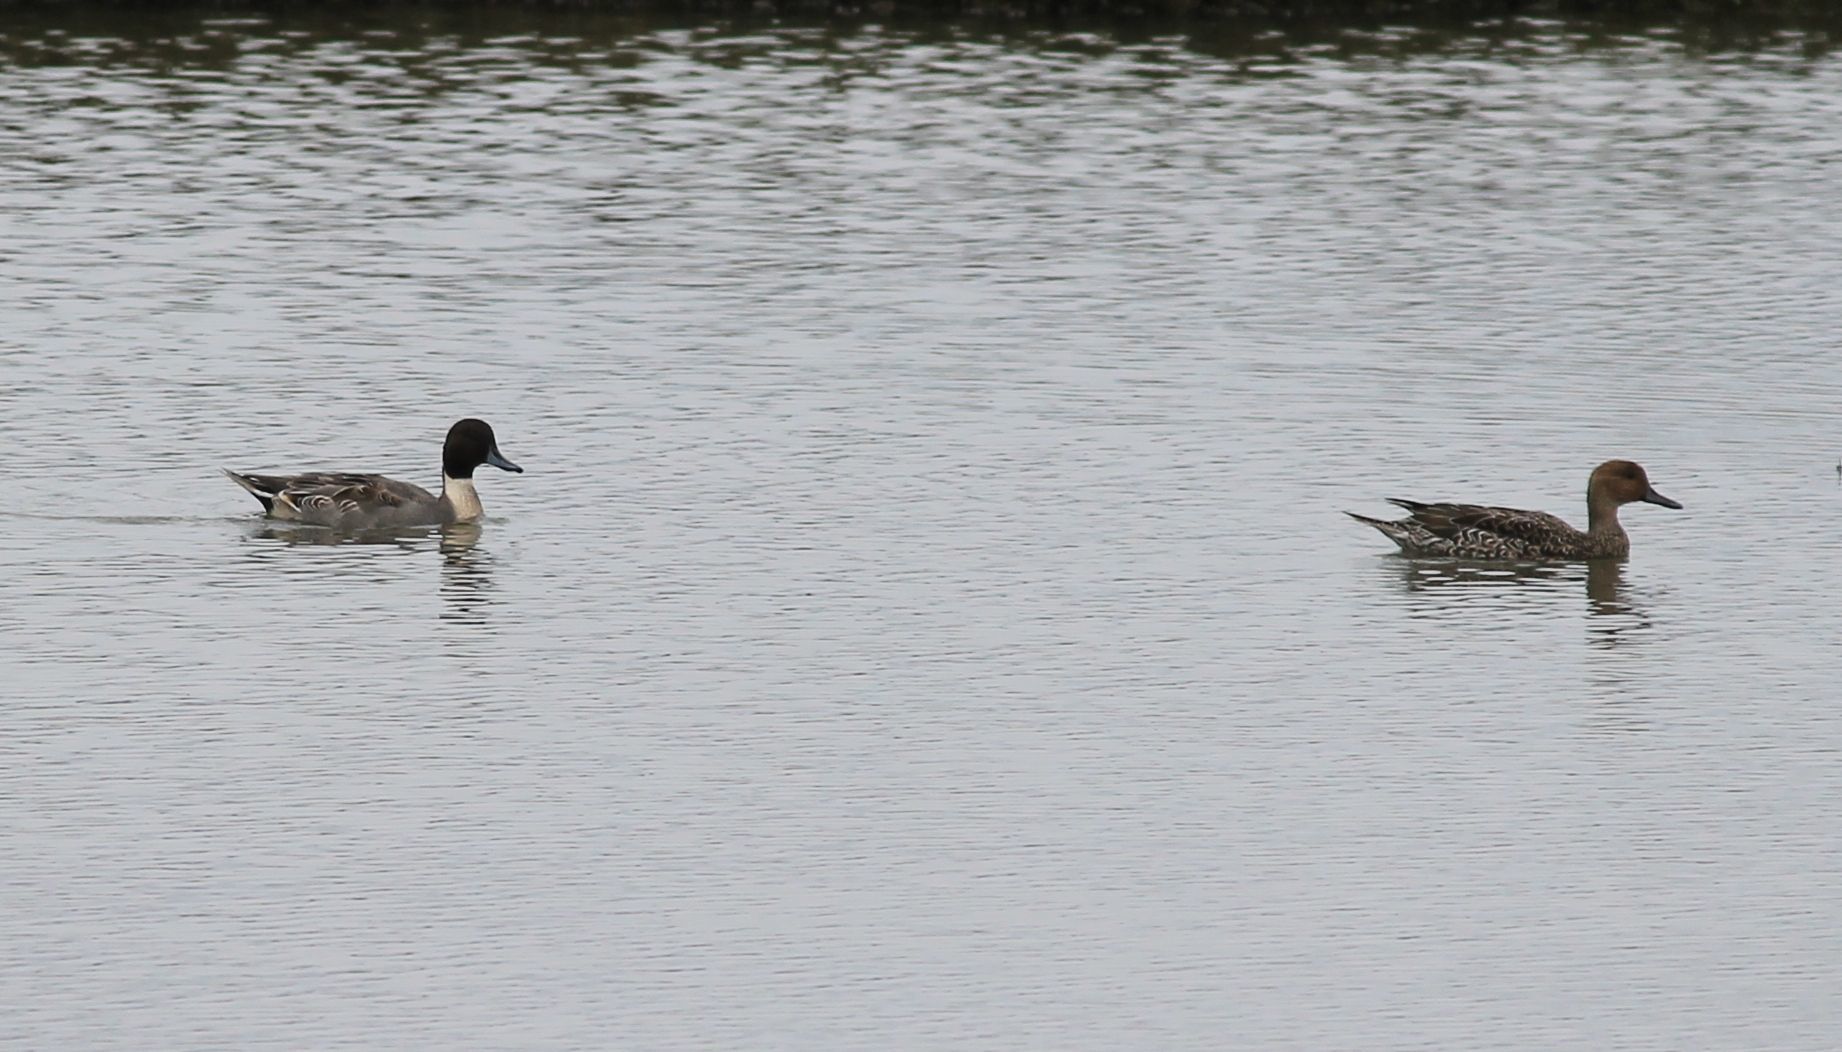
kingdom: Animalia
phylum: Chordata
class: Aves
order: Anseriformes
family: Anatidae
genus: Anas
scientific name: Anas acuta
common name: Northern pintail
